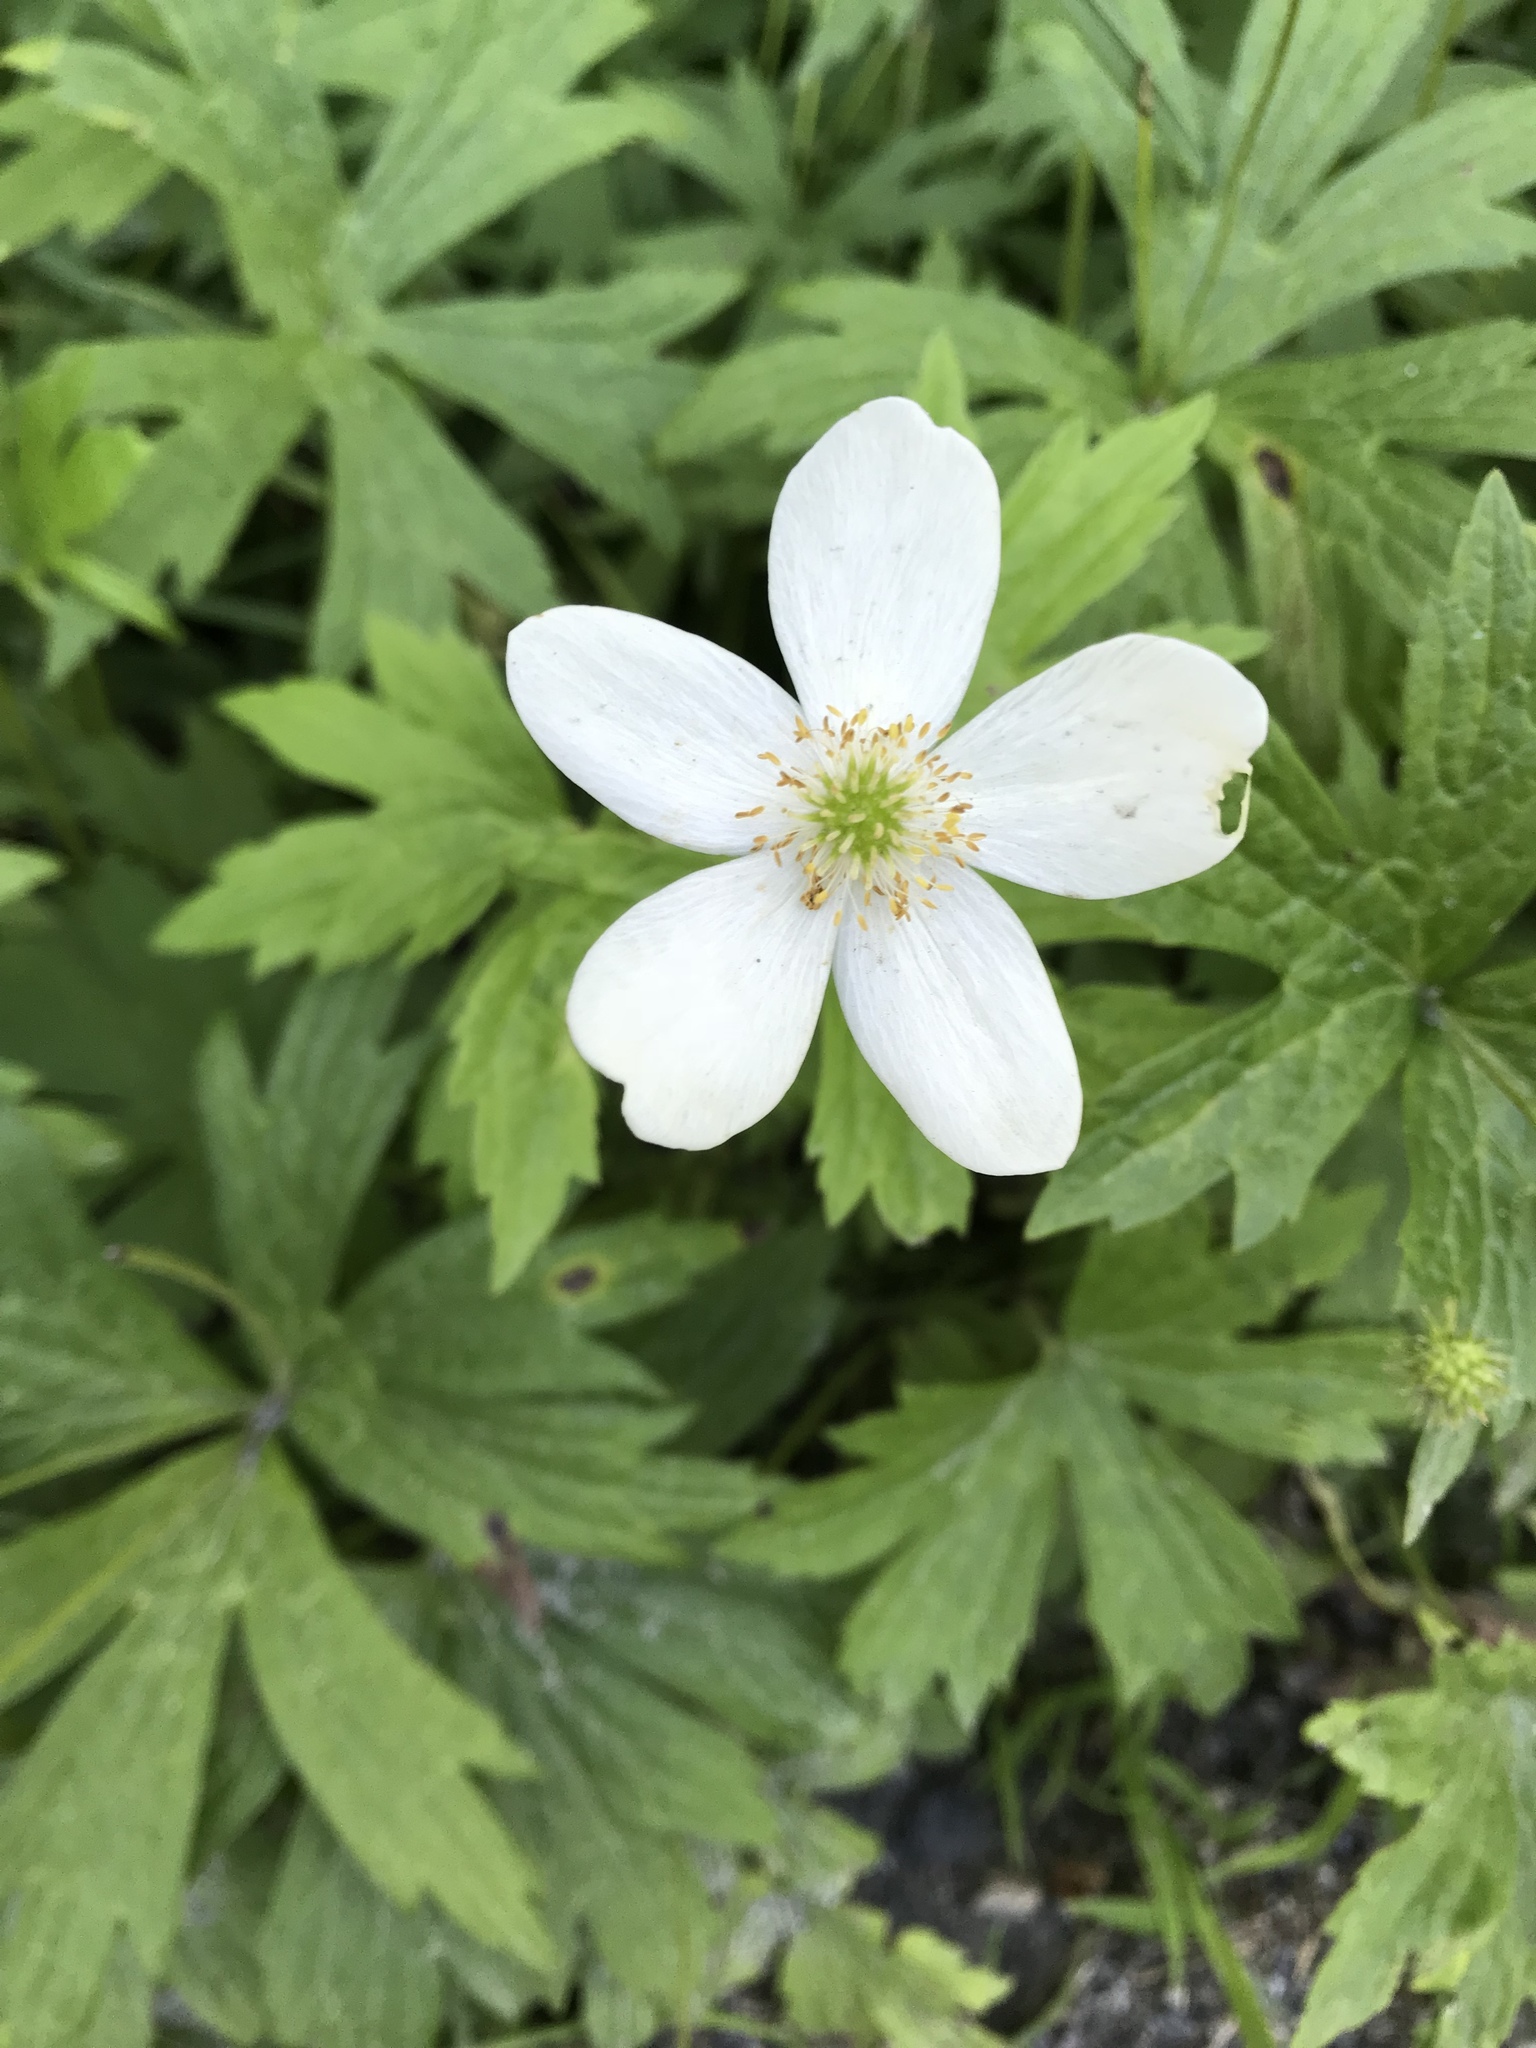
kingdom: Plantae
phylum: Tracheophyta
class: Magnoliopsida
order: Ranunculales
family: Ranunculaceae
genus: Anemonastrum
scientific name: Anemonastrum canadense
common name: Canada anemone
